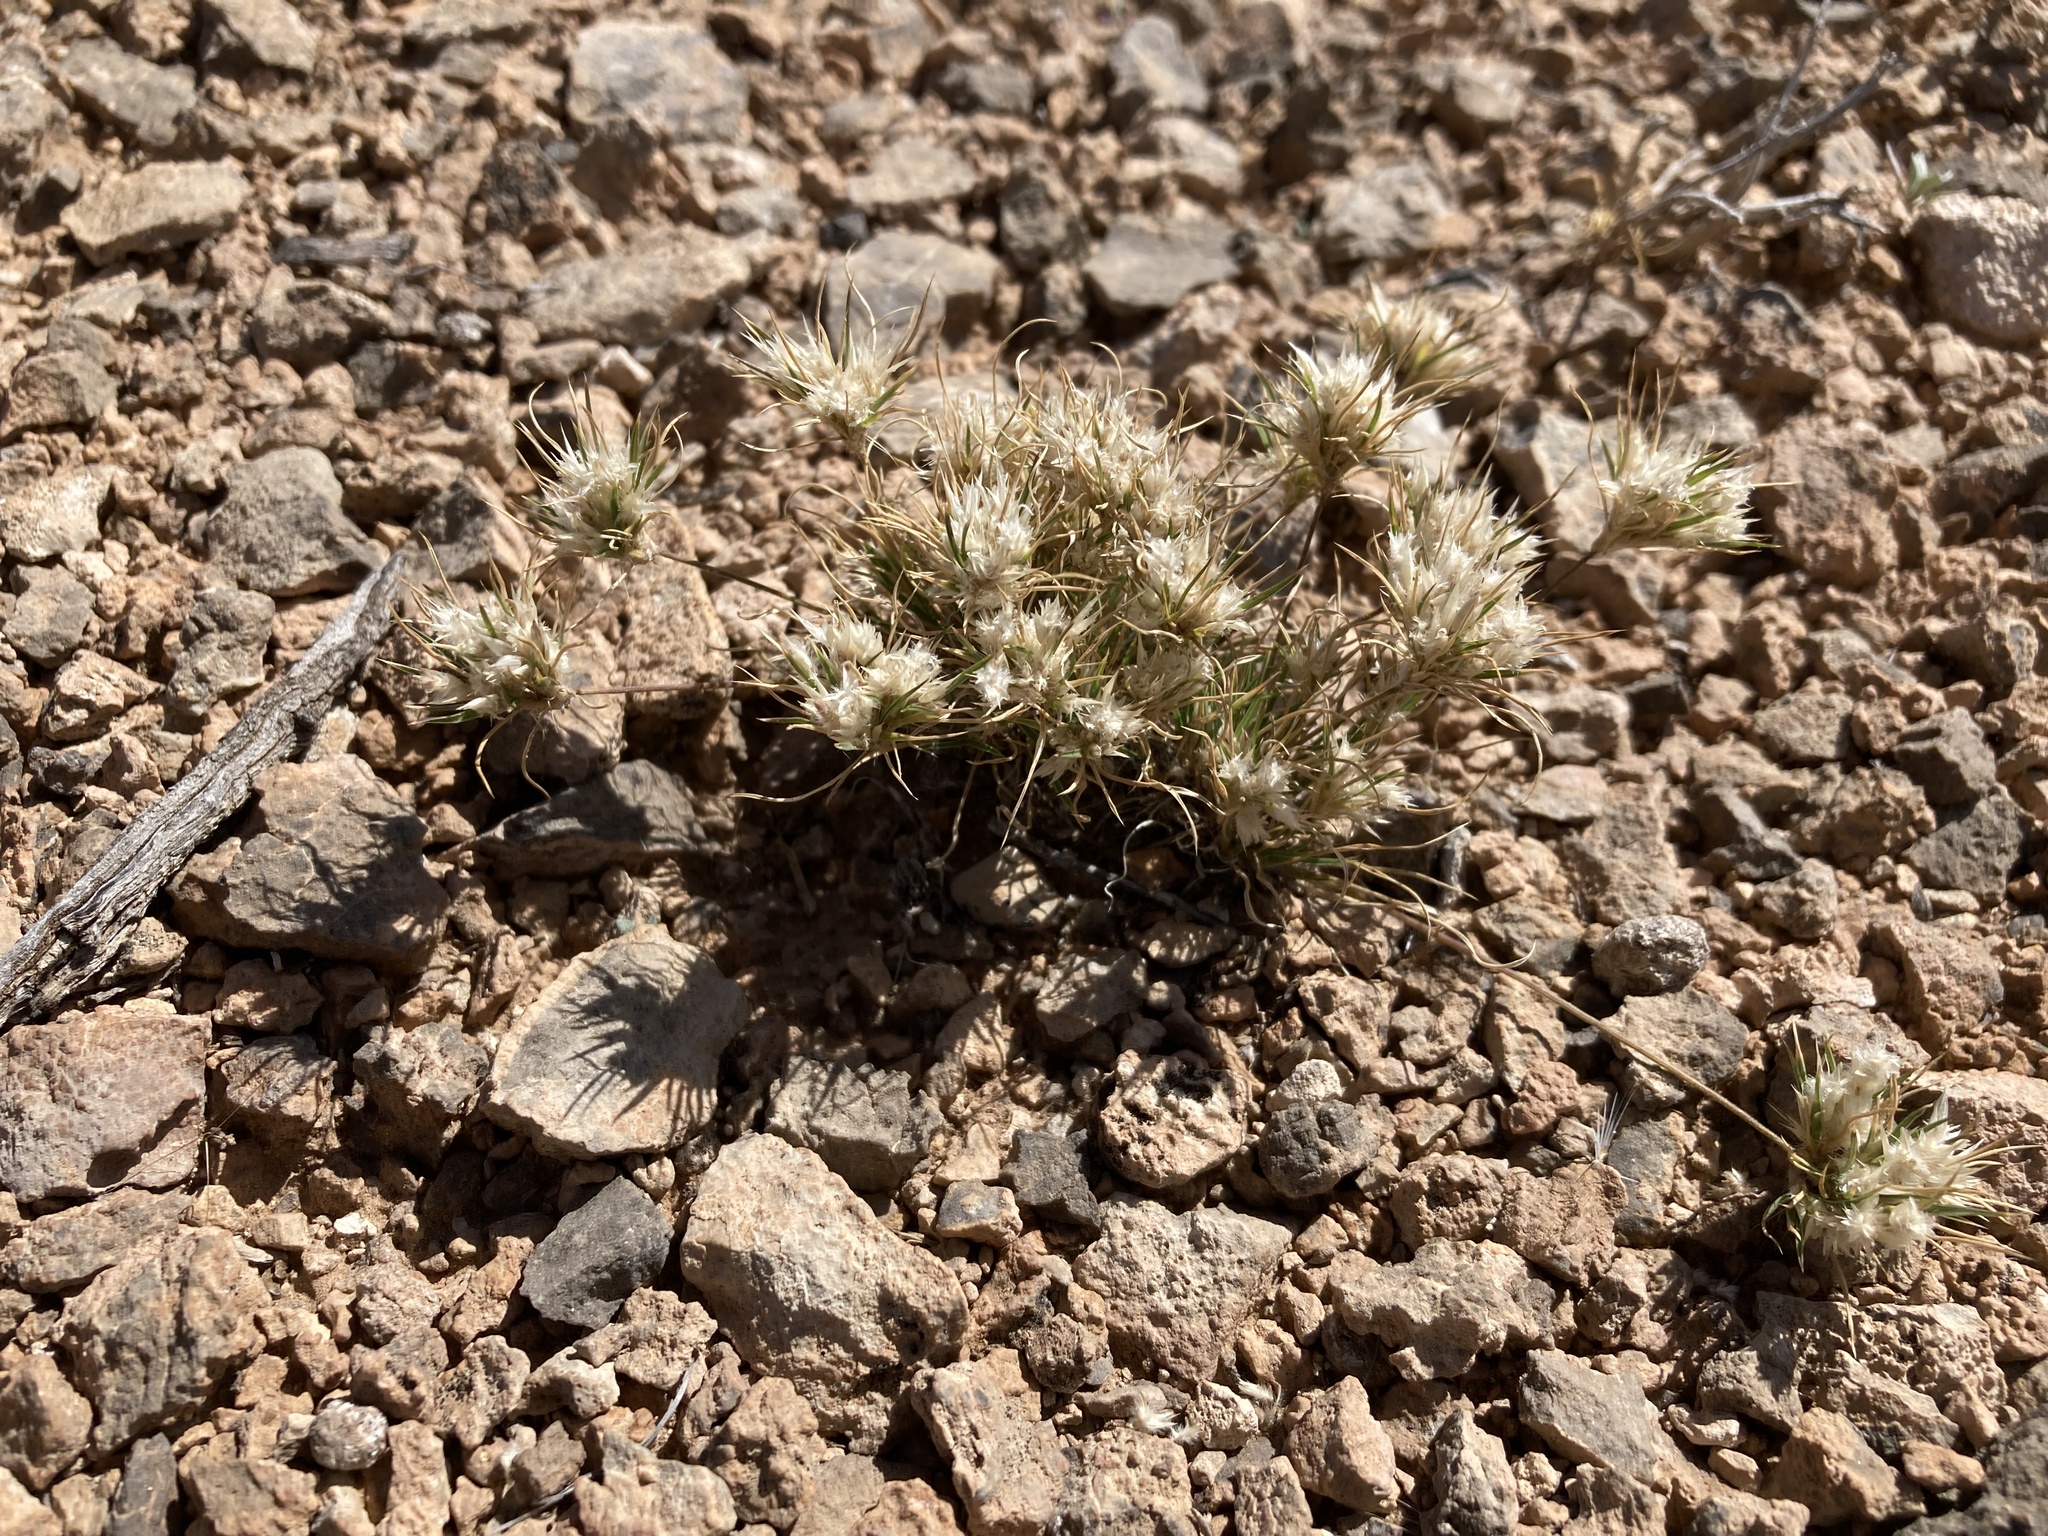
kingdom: Plantae
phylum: Tracheophyta
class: Liliopsida
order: Poales
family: Poaceae
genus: Dasyochloa
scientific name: Dasyochloa pulchella
